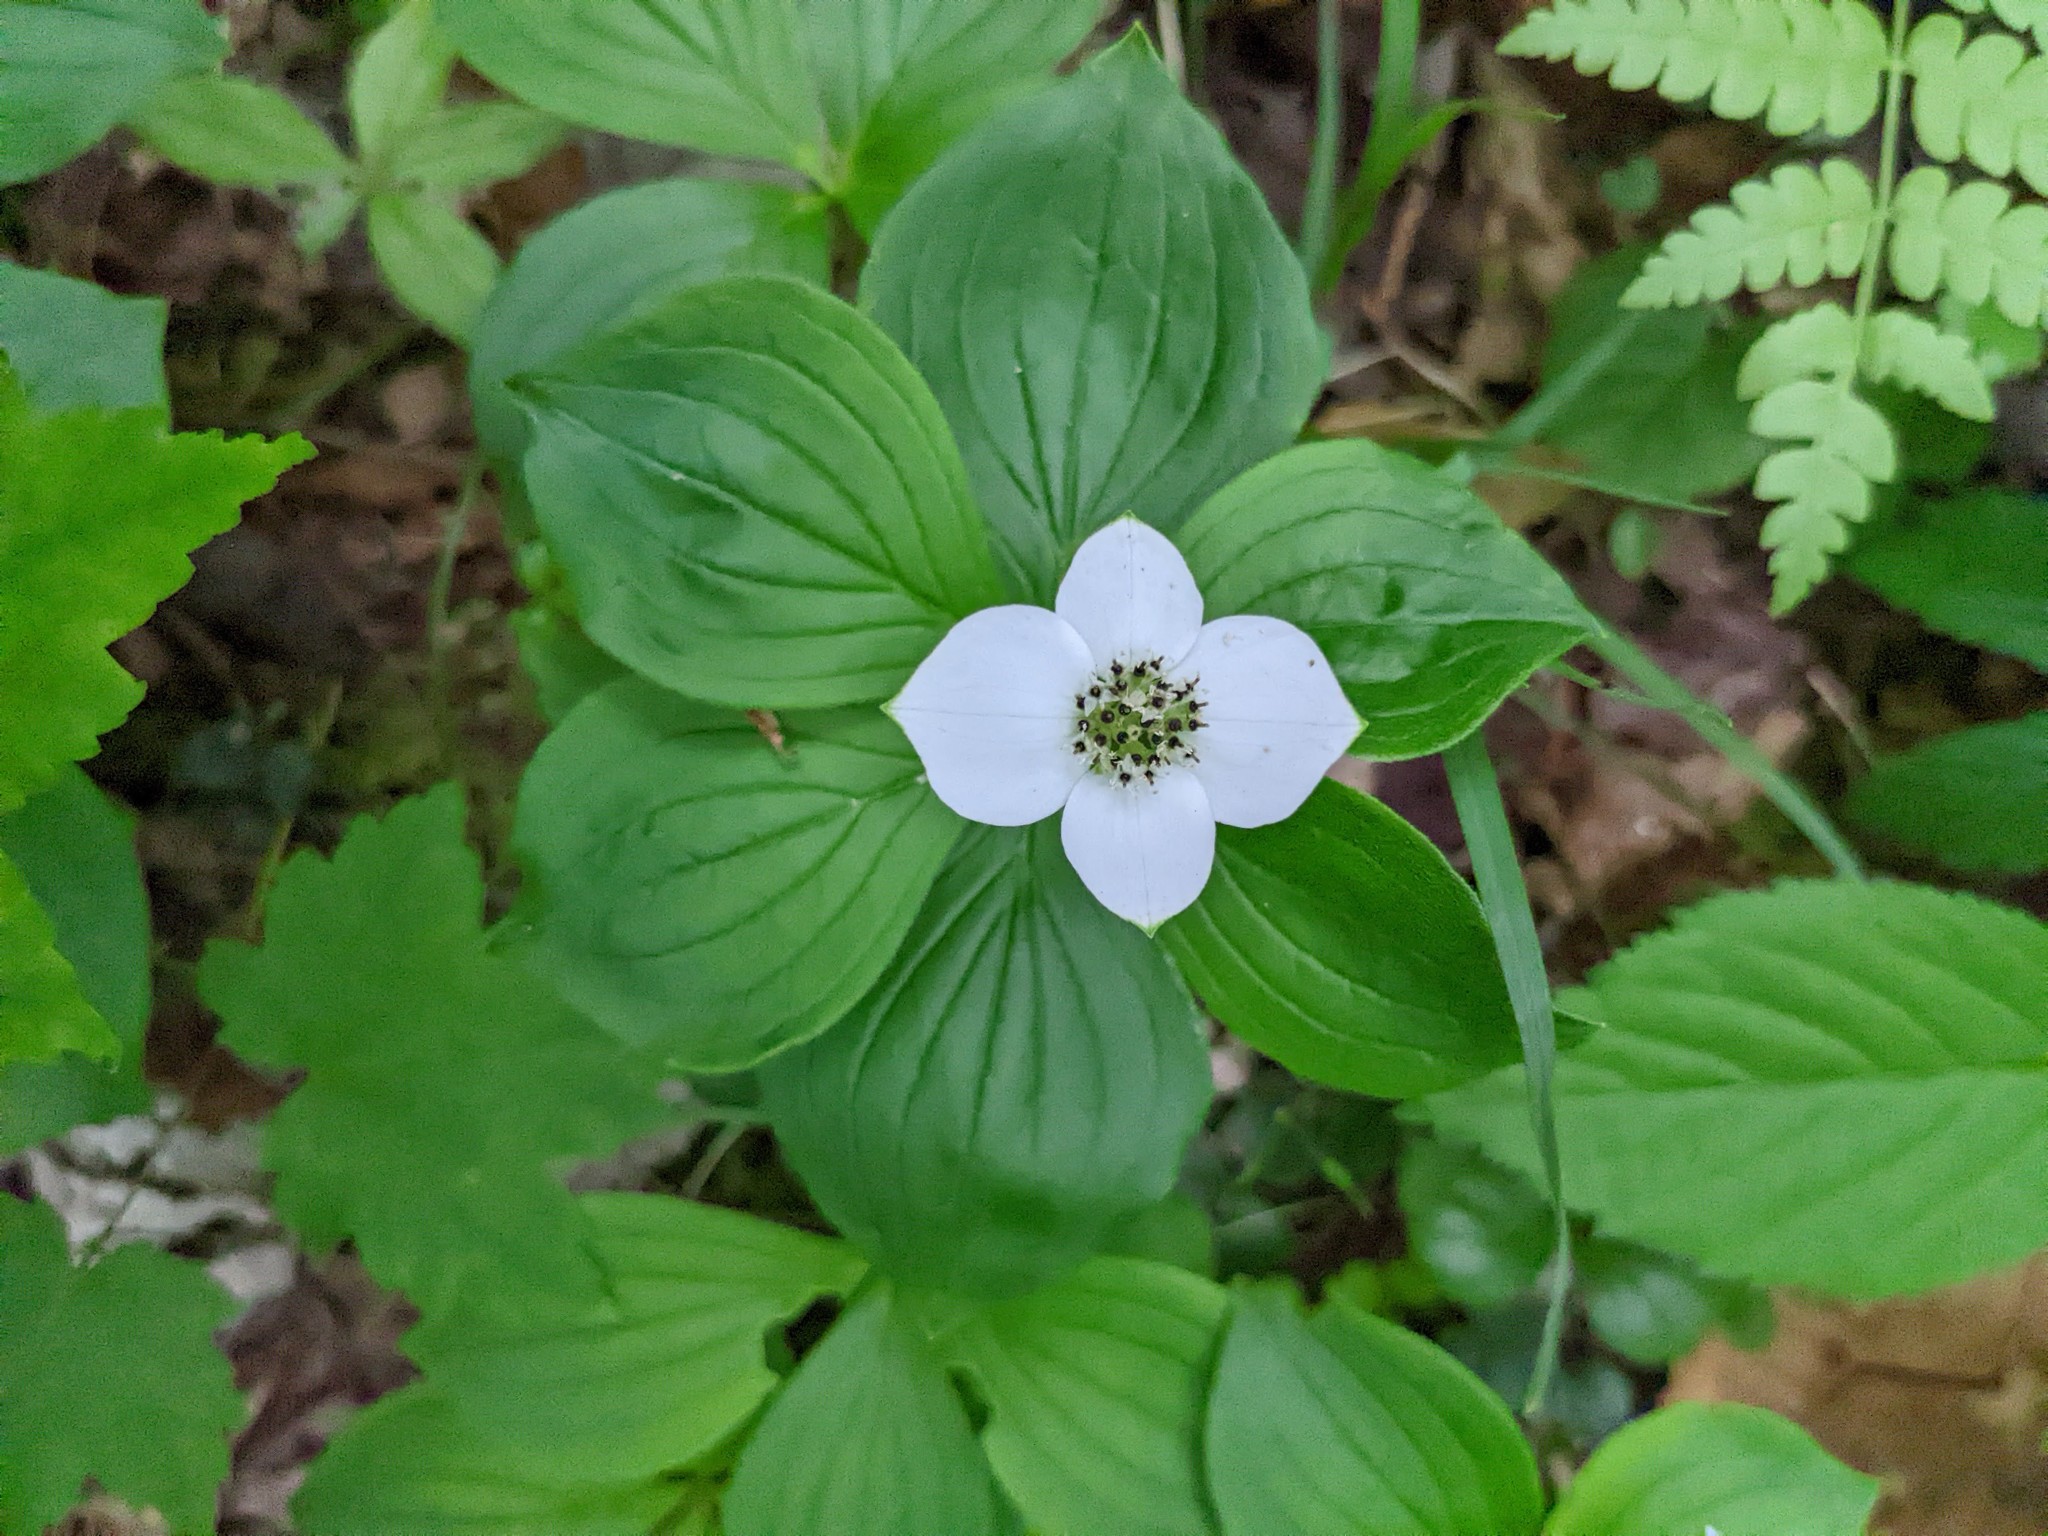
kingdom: Plantae
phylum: Tracheophyta
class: Magnoliopsida
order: Cornales
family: Cornaceae
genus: Cornus
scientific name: Cornus canadensis
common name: Creeping dogwood
